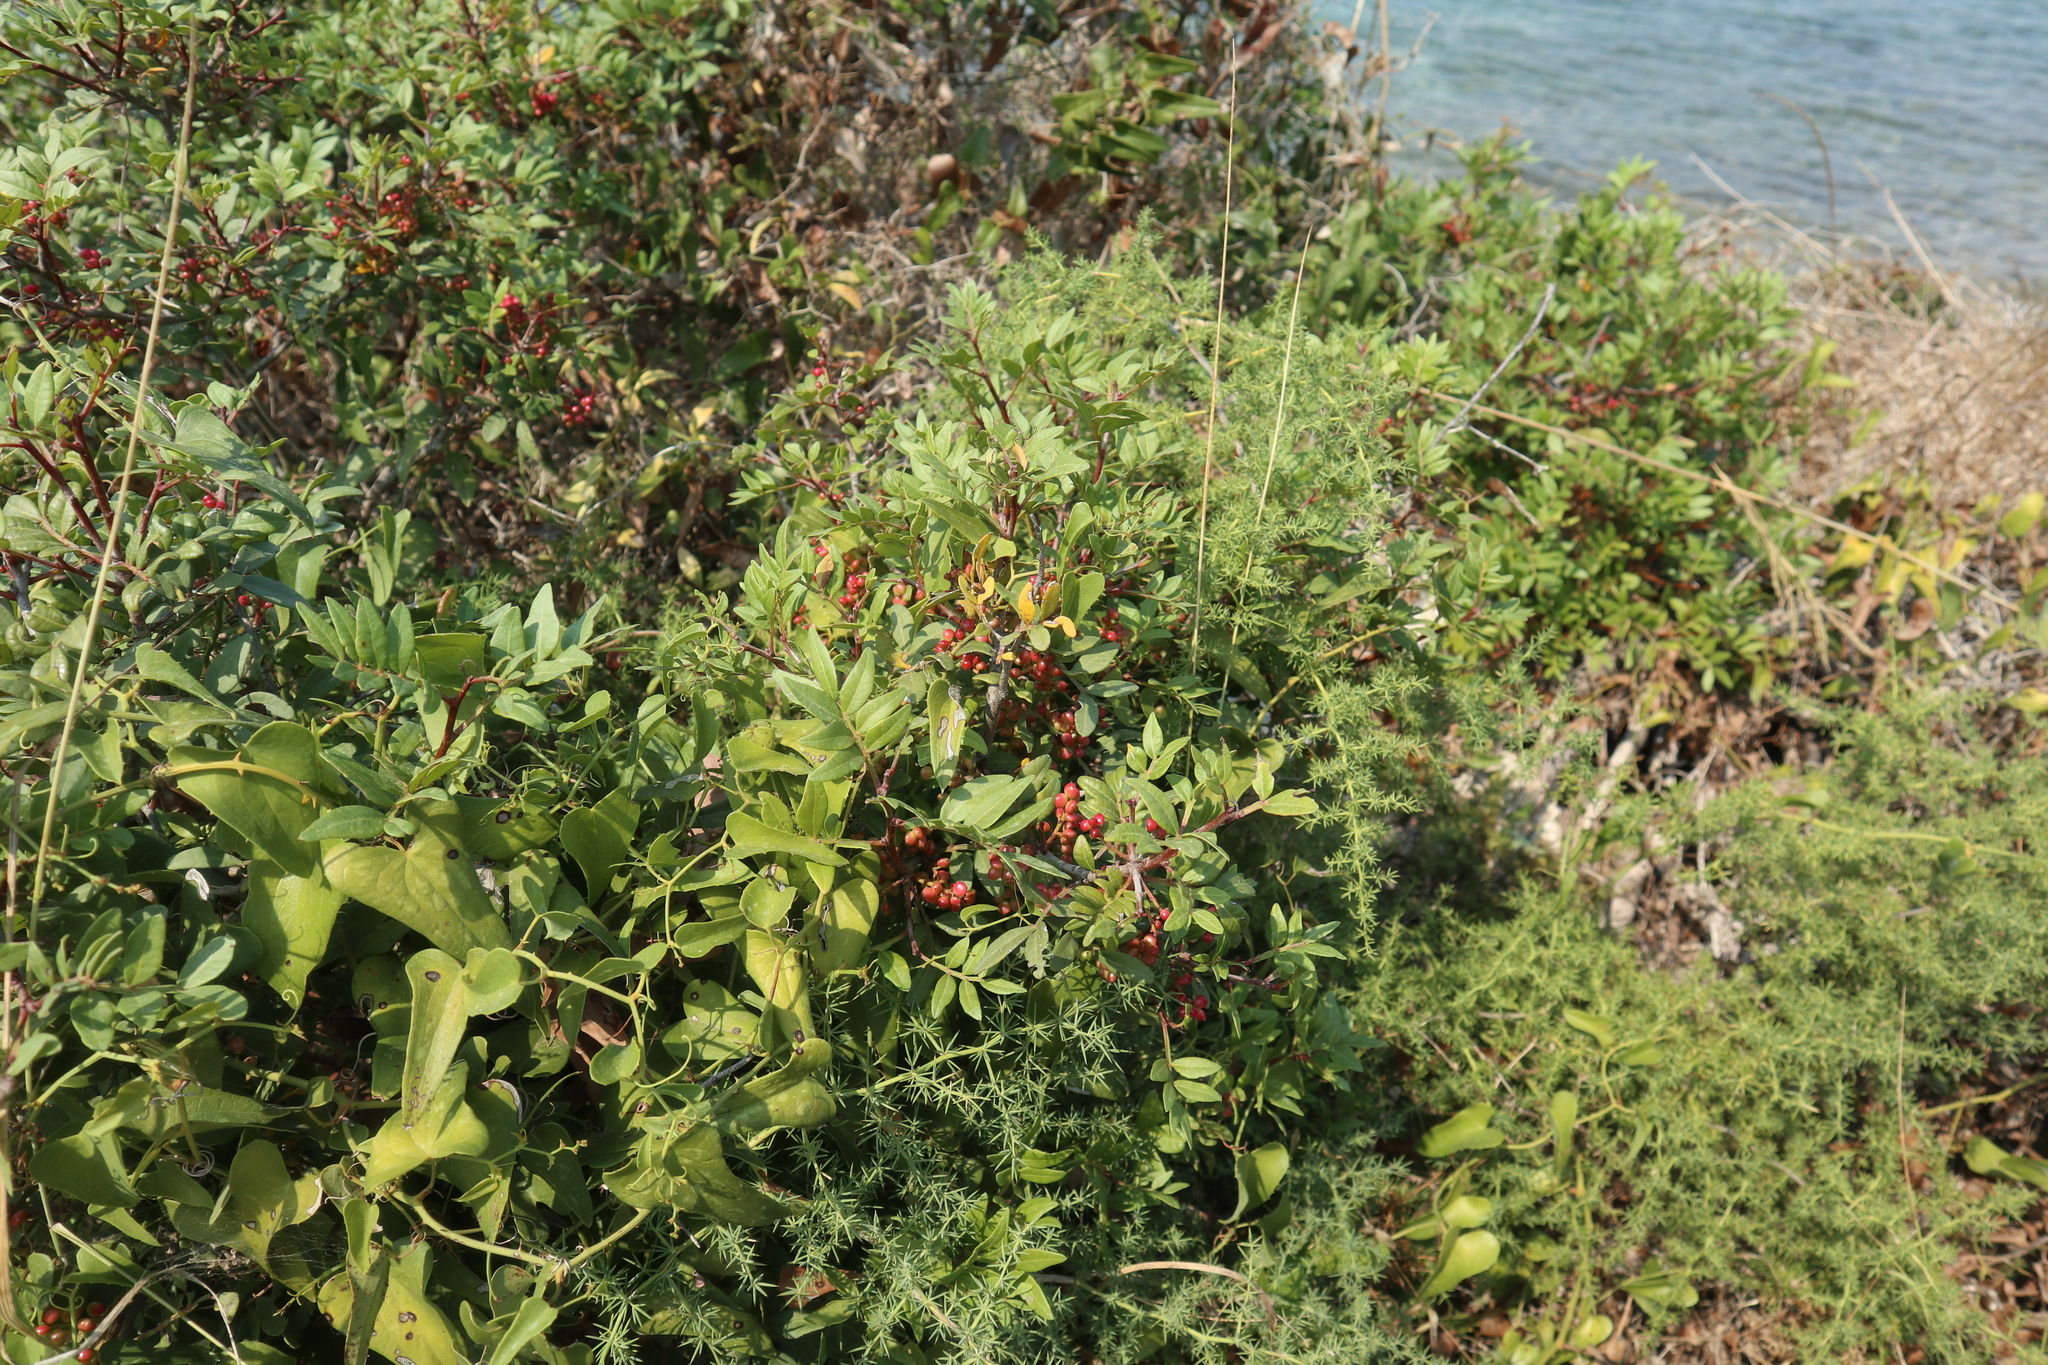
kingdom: Plantae
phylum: Tracheophyta
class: Magnoliopsida
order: Sapindales
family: Anacardiaceae
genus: Pistacia
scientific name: Pistacia lentiscus
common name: Lentisk
